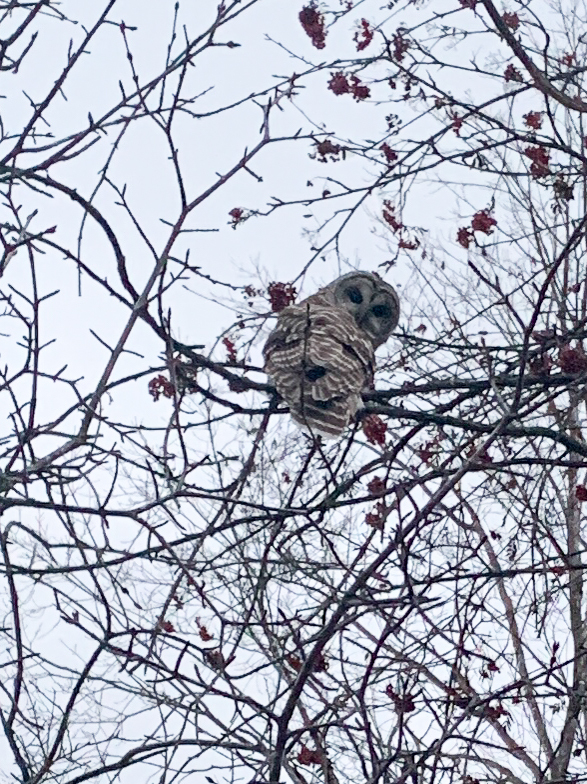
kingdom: Animalia
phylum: Chordata
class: Aves
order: Strigiformes
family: Strigidae
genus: Strix
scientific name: Strix varia
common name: Barred owl
